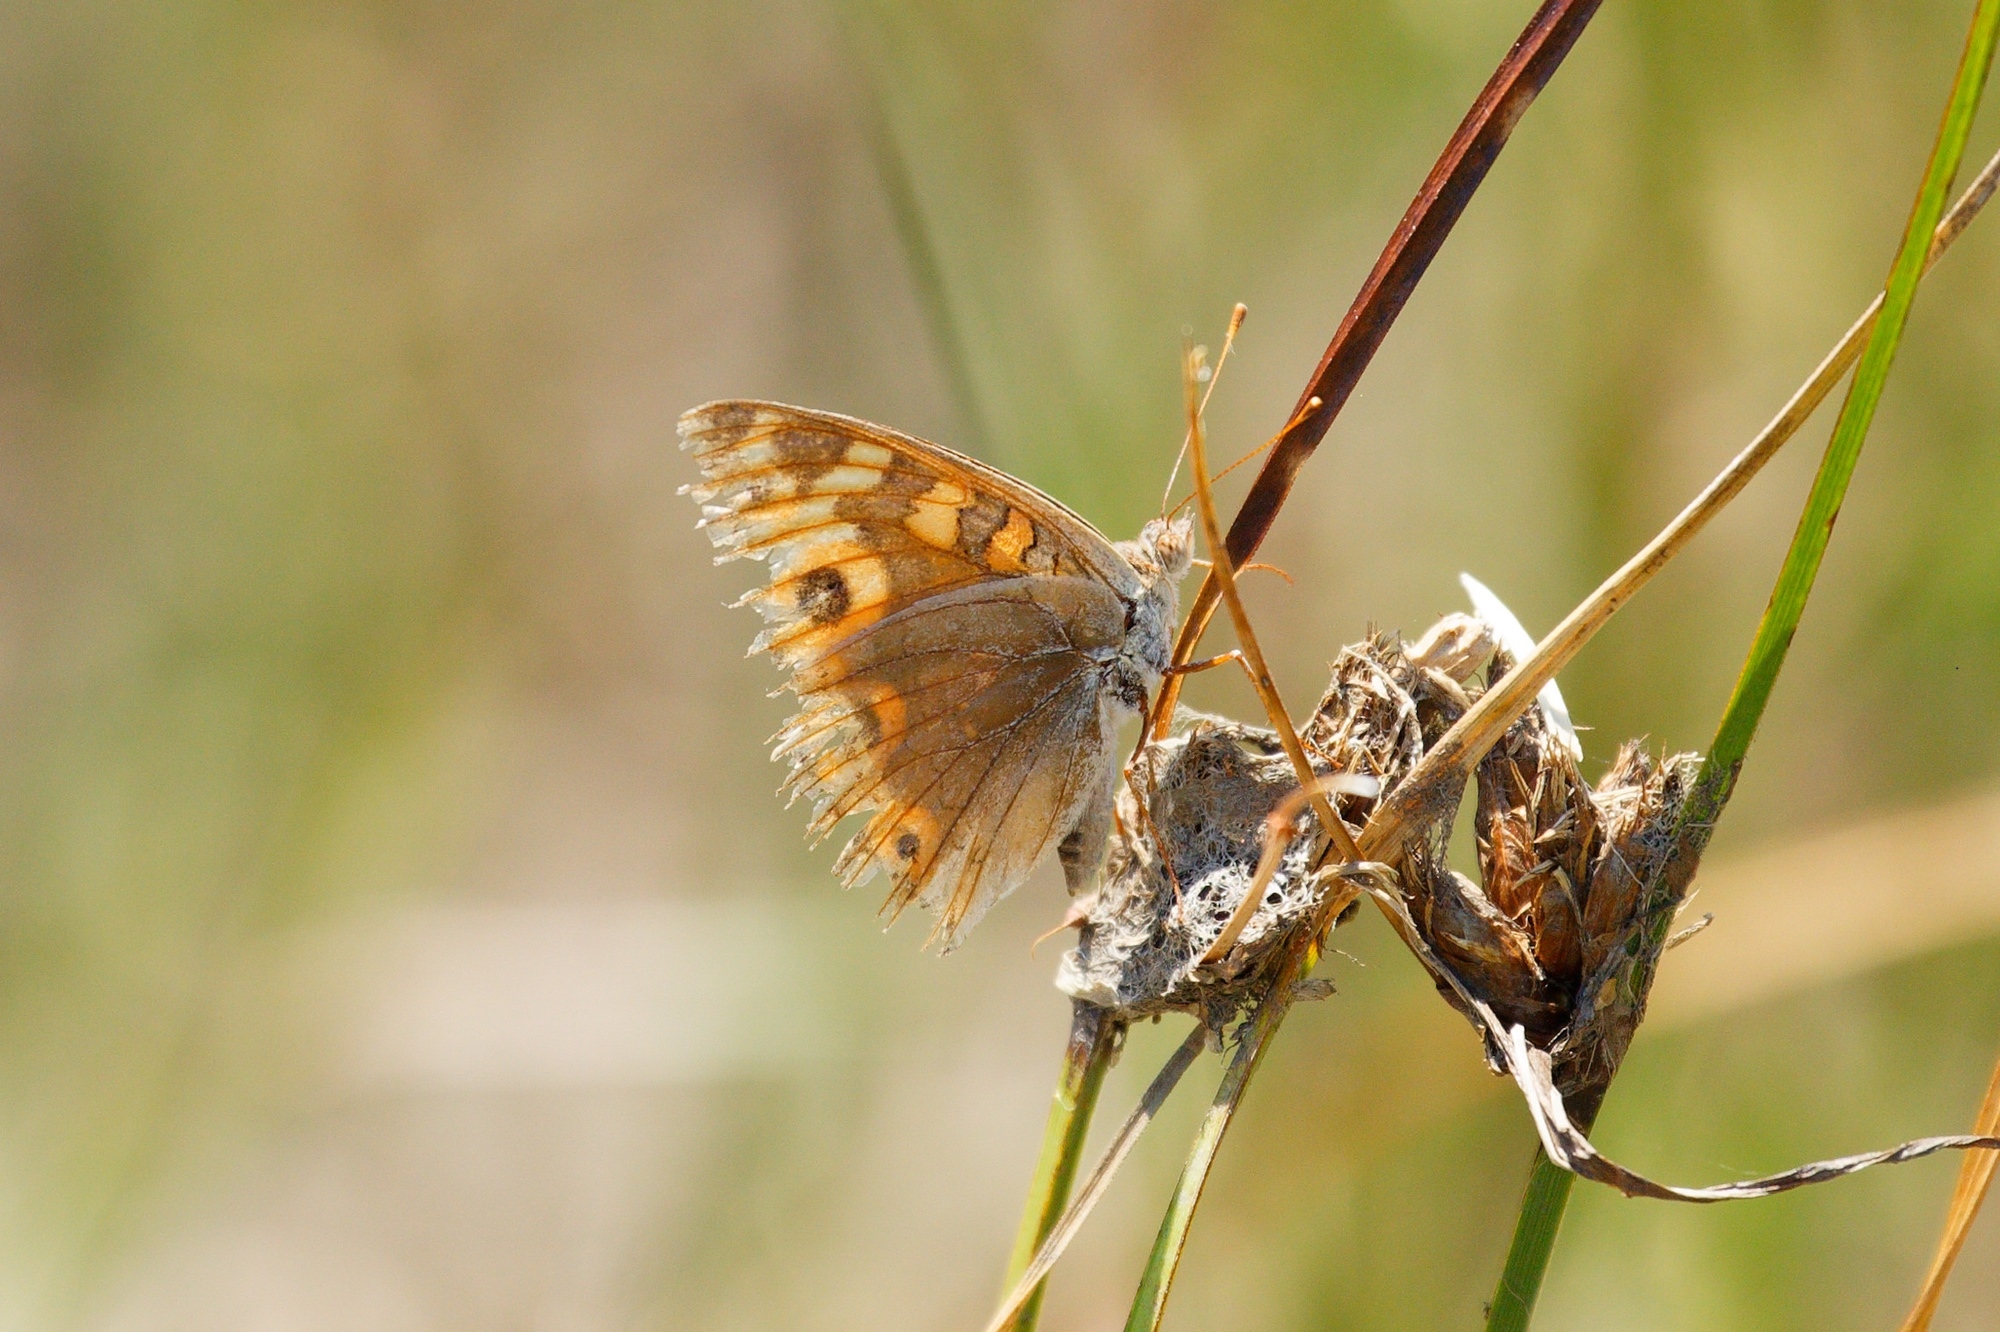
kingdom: Animalia
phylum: Arthropoda
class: Insecta
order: Lepidoptera
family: Nymphalidae
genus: Junonia
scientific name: Junonia villida
